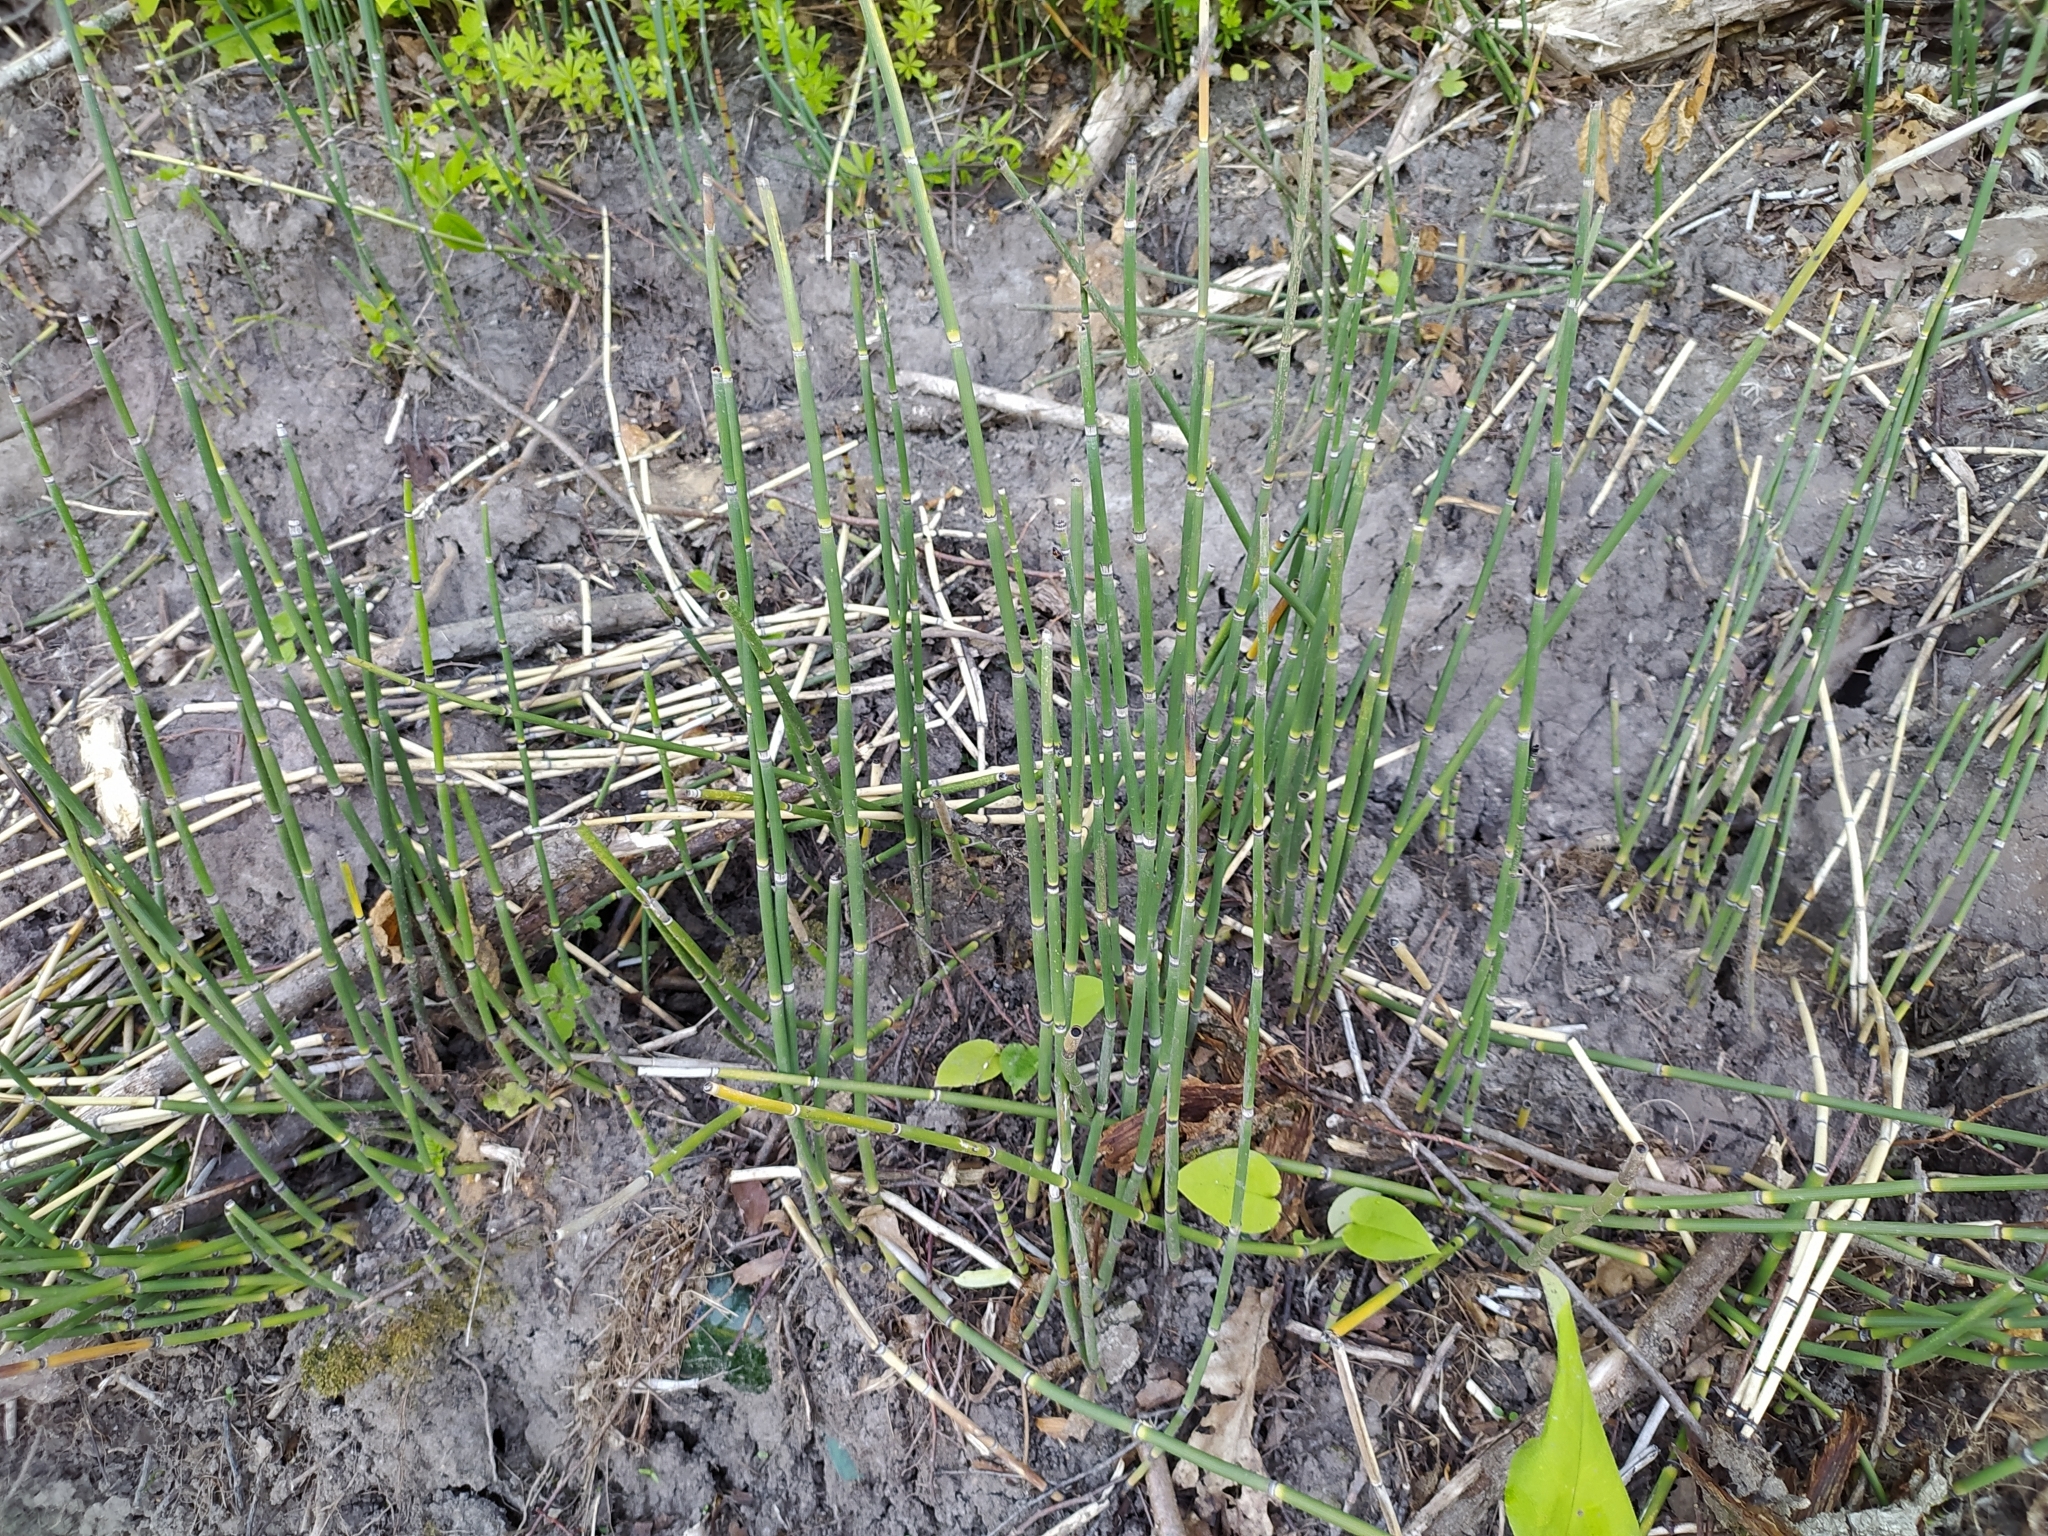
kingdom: Plantae
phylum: Tracheophyta
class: Polypodiopsida
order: Equisetales
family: Equisetaceae
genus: Equisetum
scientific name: Equisetum hyemale
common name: Rough horsetail
